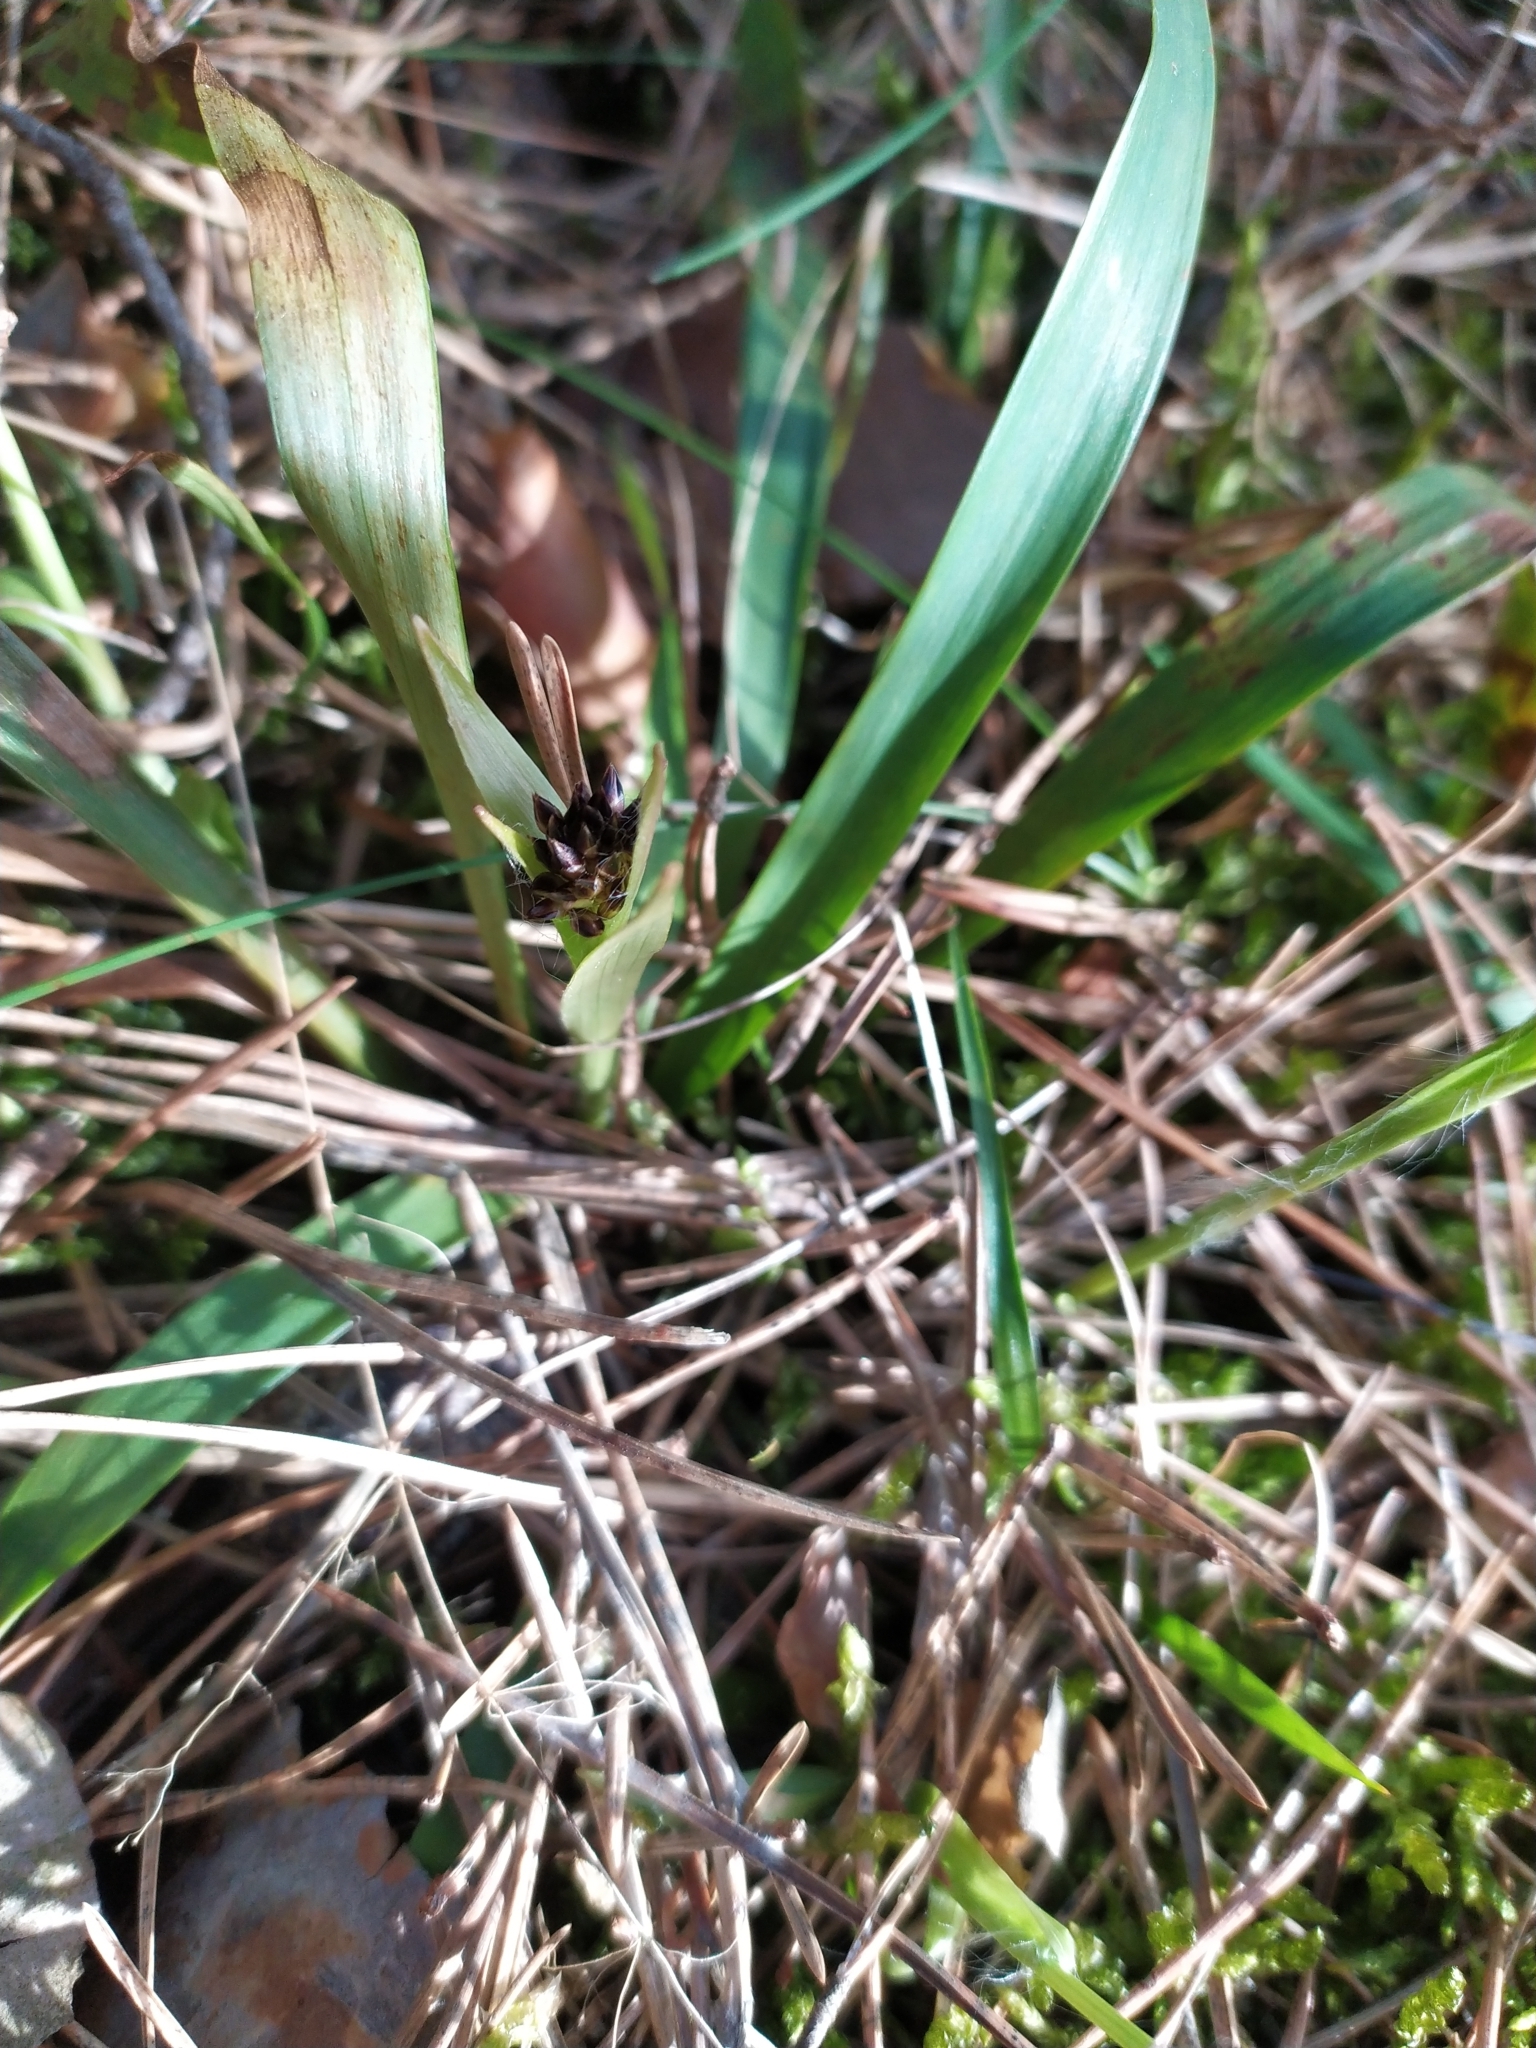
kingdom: Plantae
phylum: Tracheophyta
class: Liliopsida
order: Poales
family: Juncaceae
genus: Luzula
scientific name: Luzula pilosa
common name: Hairy wood-rush
